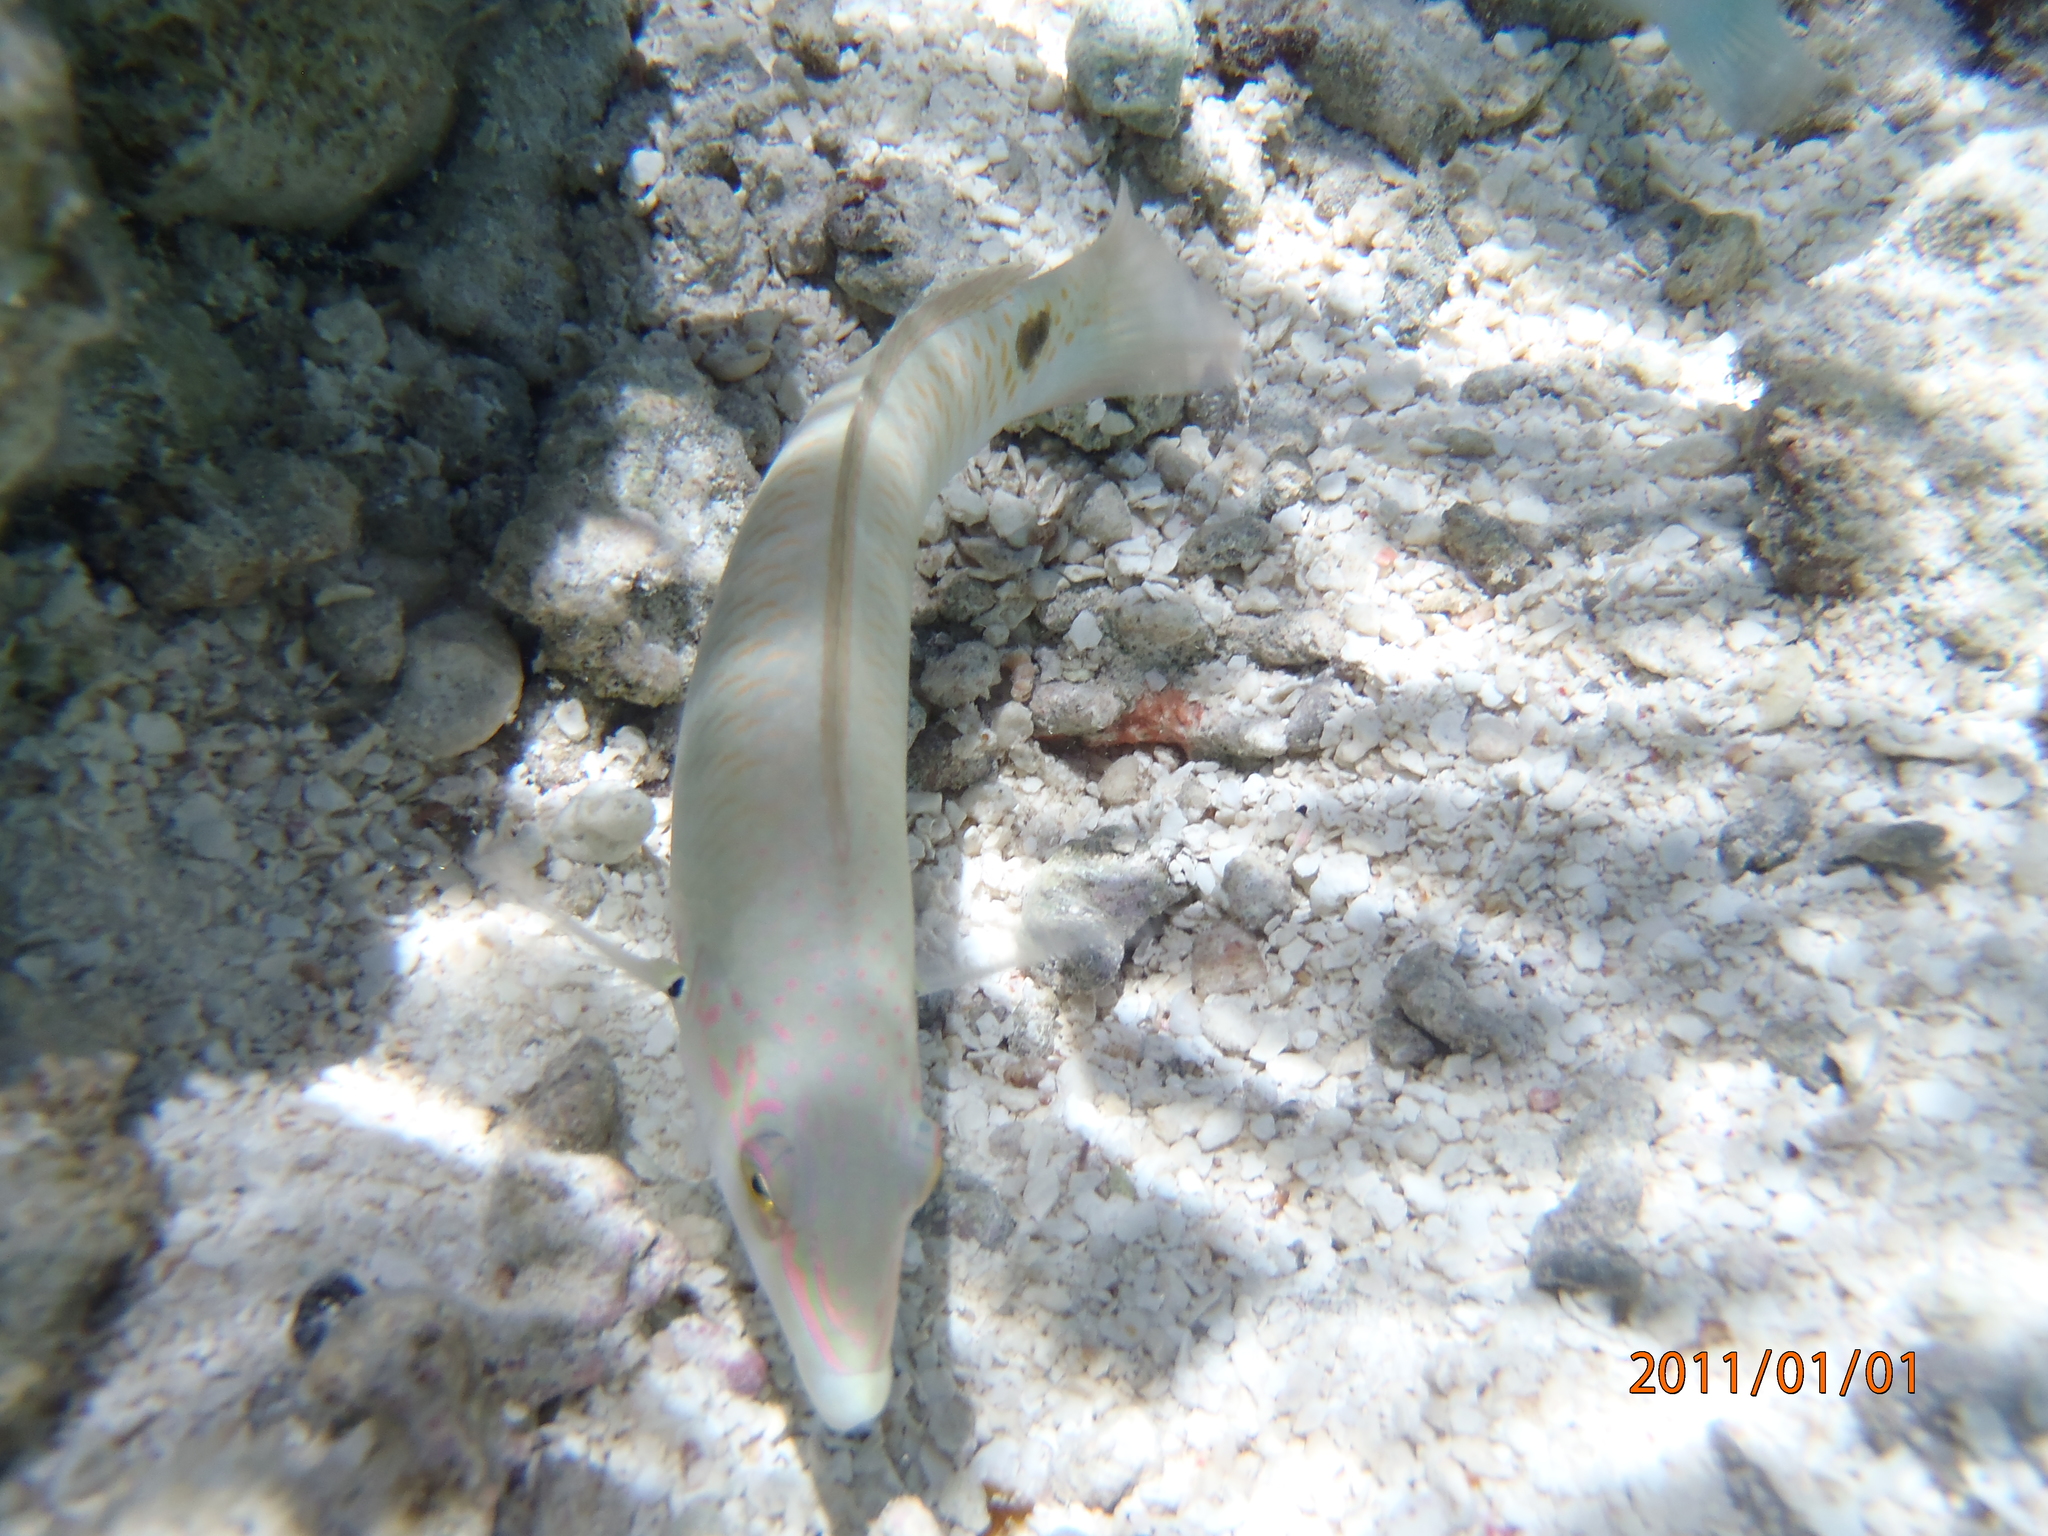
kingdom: Animalia
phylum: Chordata
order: Perciformes
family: Labridae
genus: Halichoeres
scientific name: Halichoeres trimaculatus
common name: Three-spot wrasse
